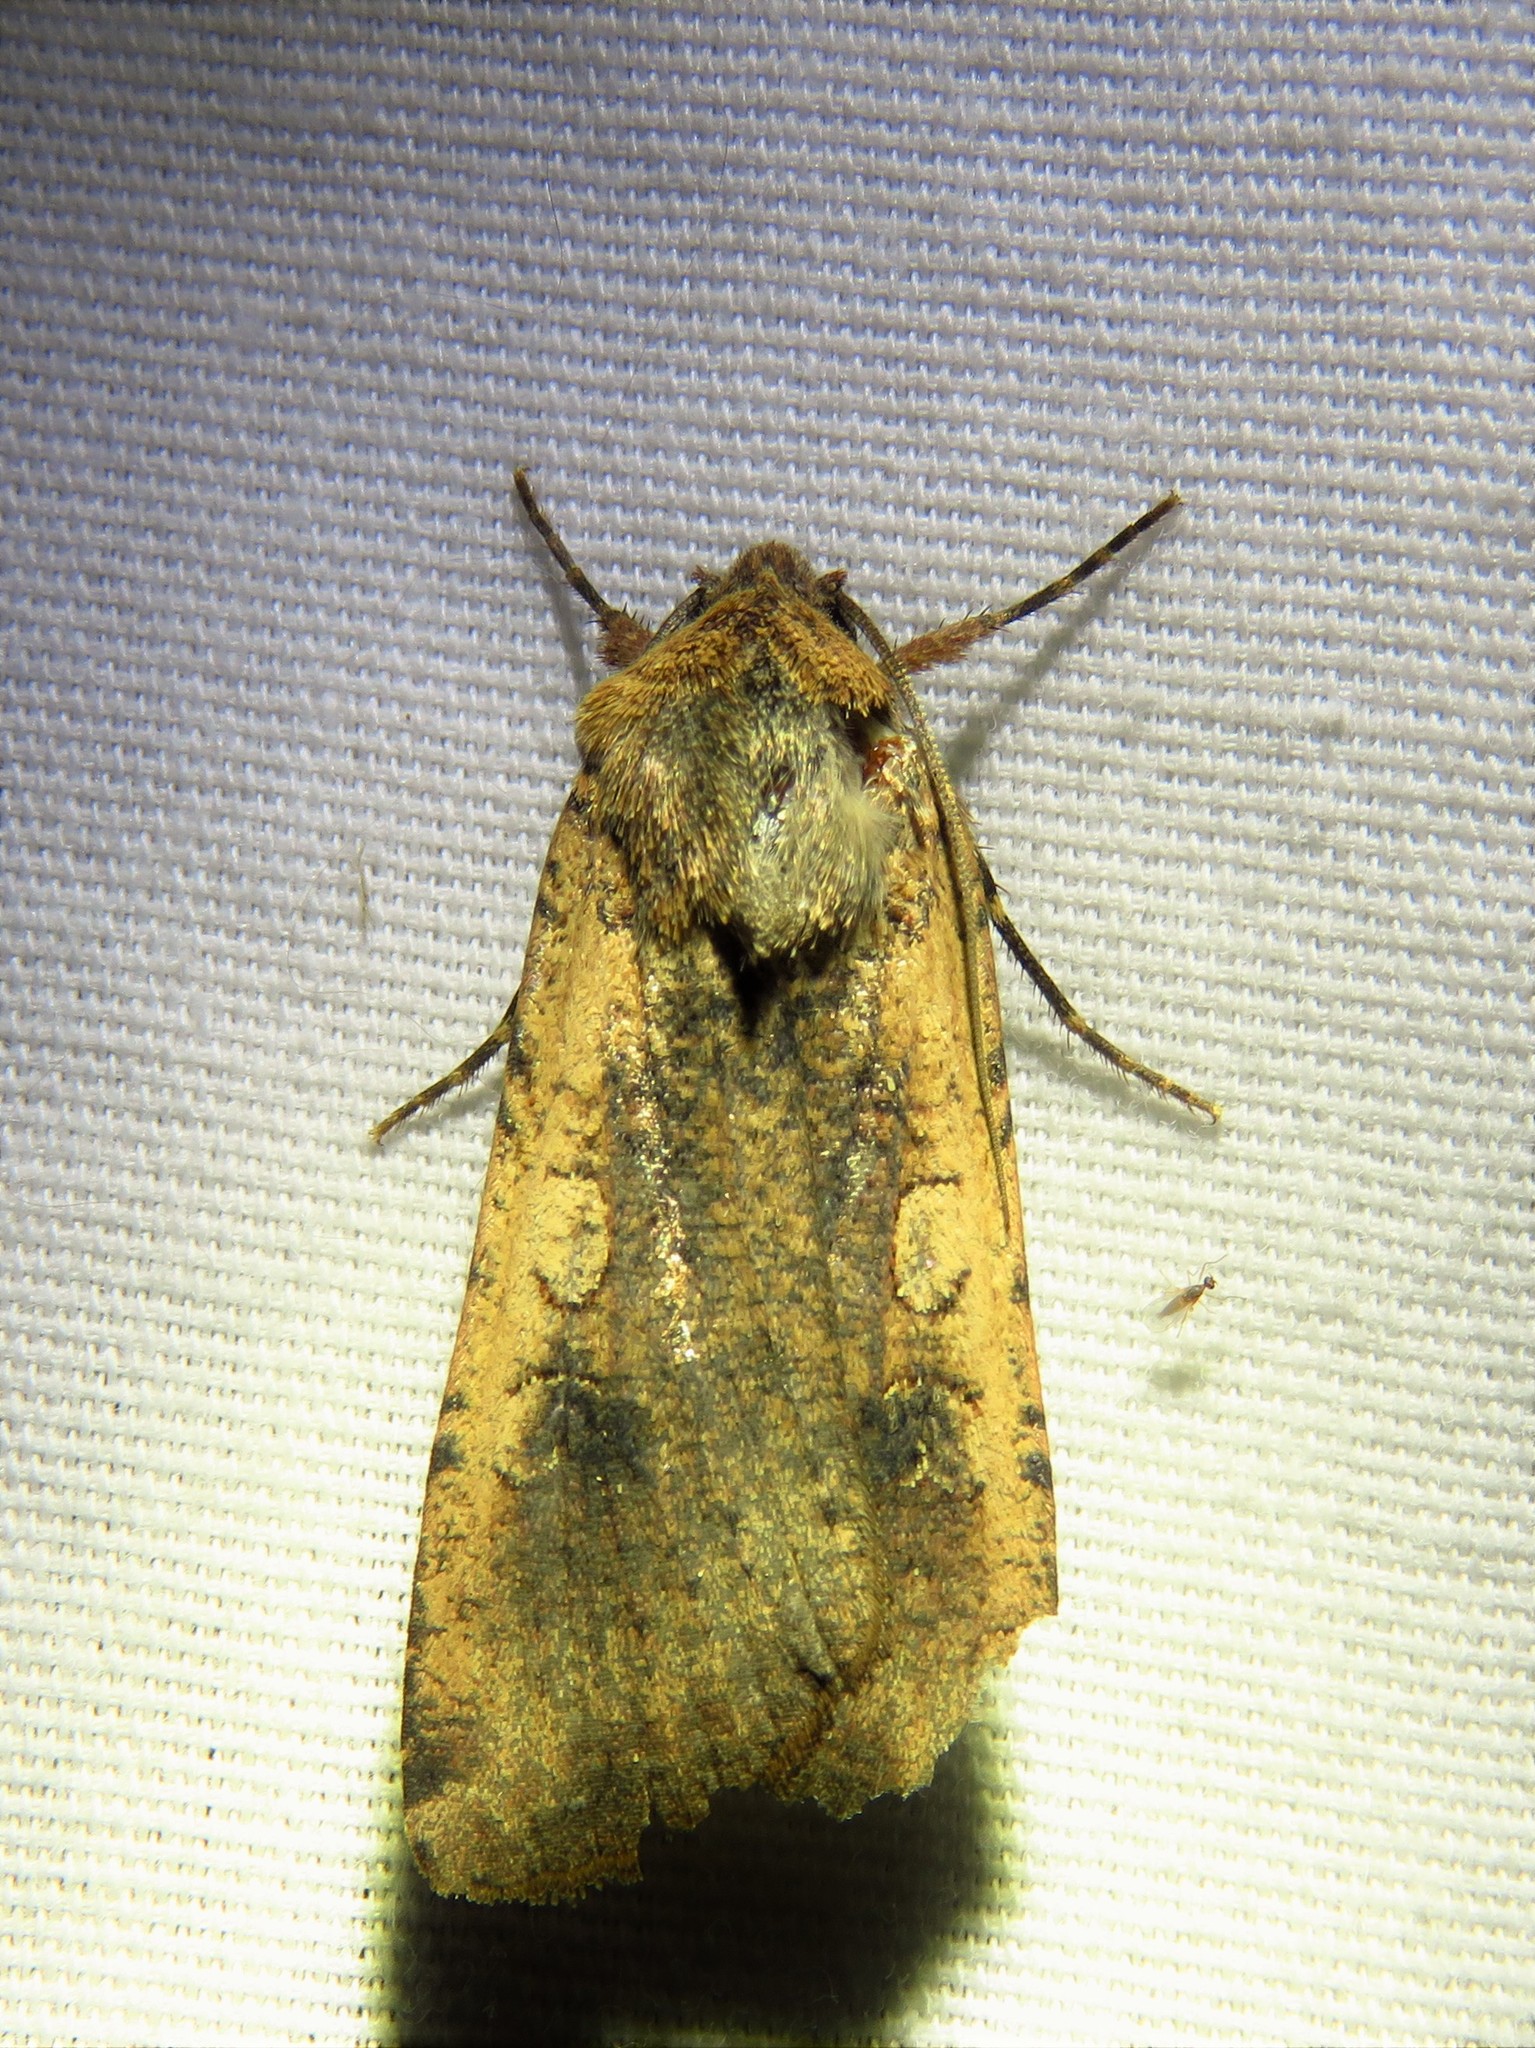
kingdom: Animalia
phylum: Arthropoda
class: Insecta
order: Lepidoptera
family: Noctuidae
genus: Peridroma
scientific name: Peridroma saucia
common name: Pearly underwing
